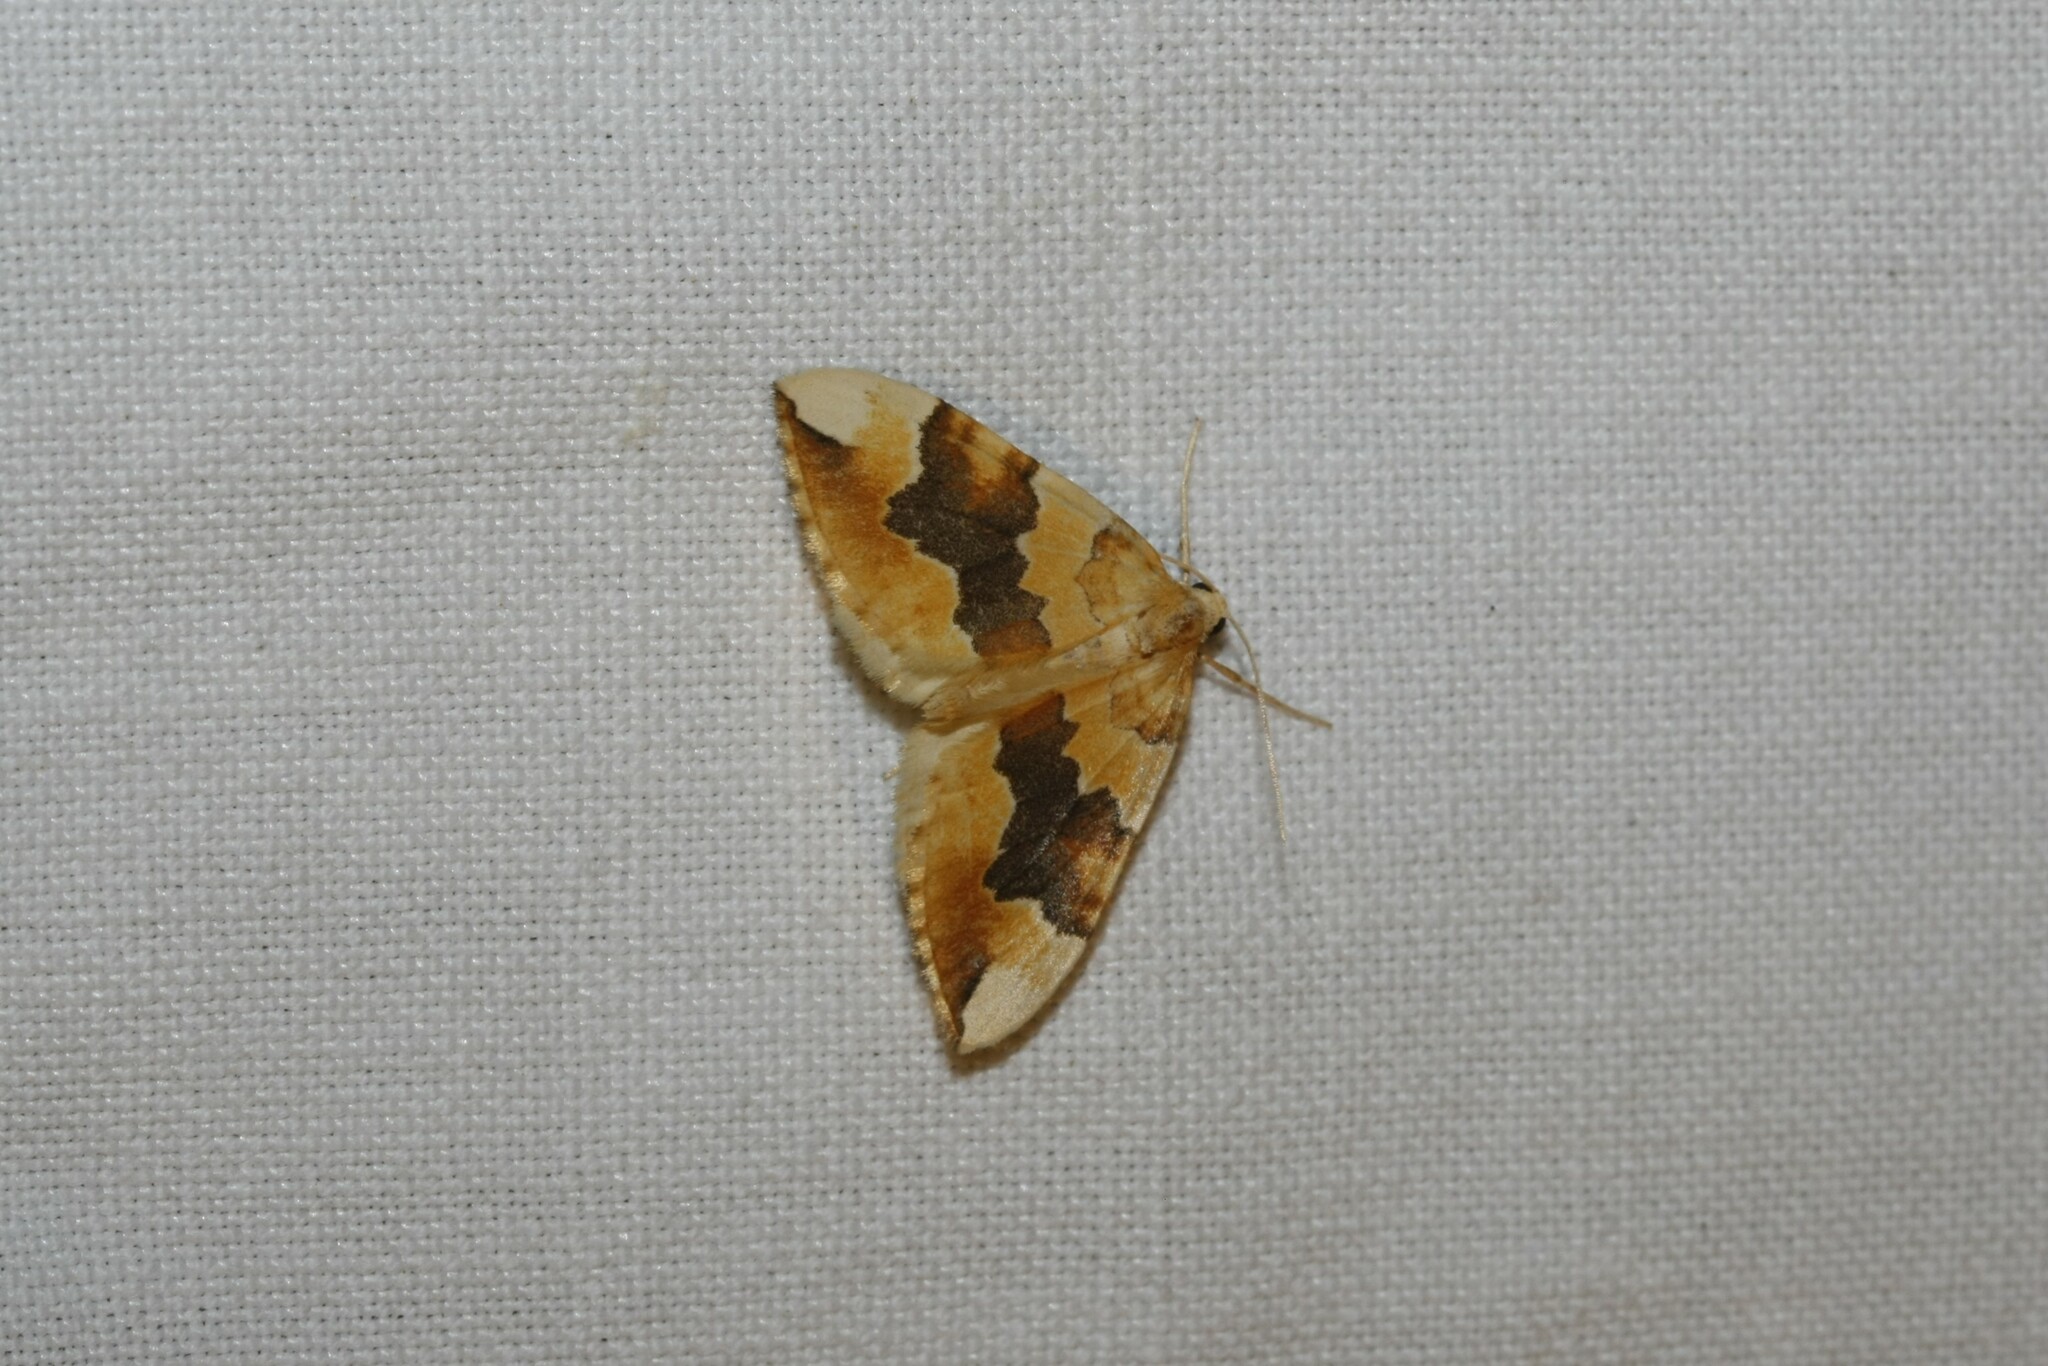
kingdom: Animalia
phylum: Arthropoda
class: Insecta
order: Lepidoptera
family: Geometridae
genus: Cidaria
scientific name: Cidaria fulvata
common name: Barred yellow
